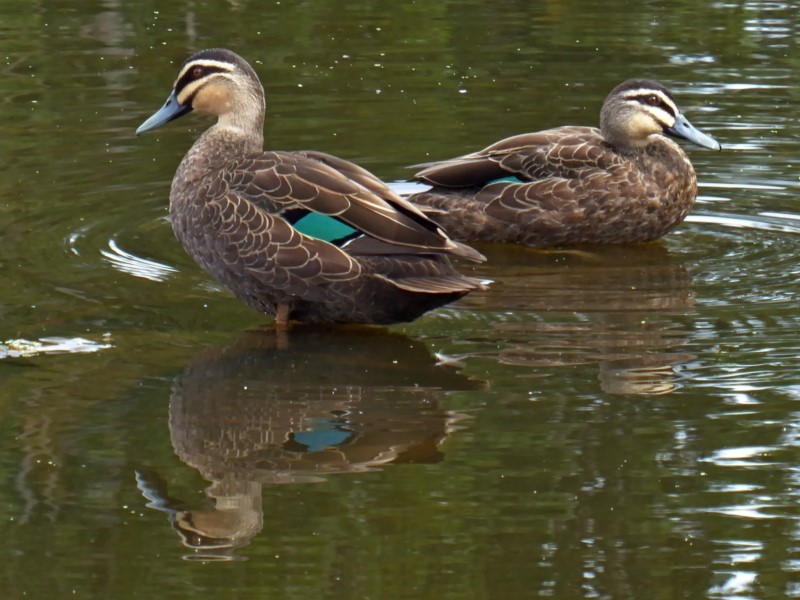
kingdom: Animalia
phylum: Chordata
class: Aves
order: Anseriformes
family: Anatidae
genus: Anas
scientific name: Anas superciliosa
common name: Pacific black duck
